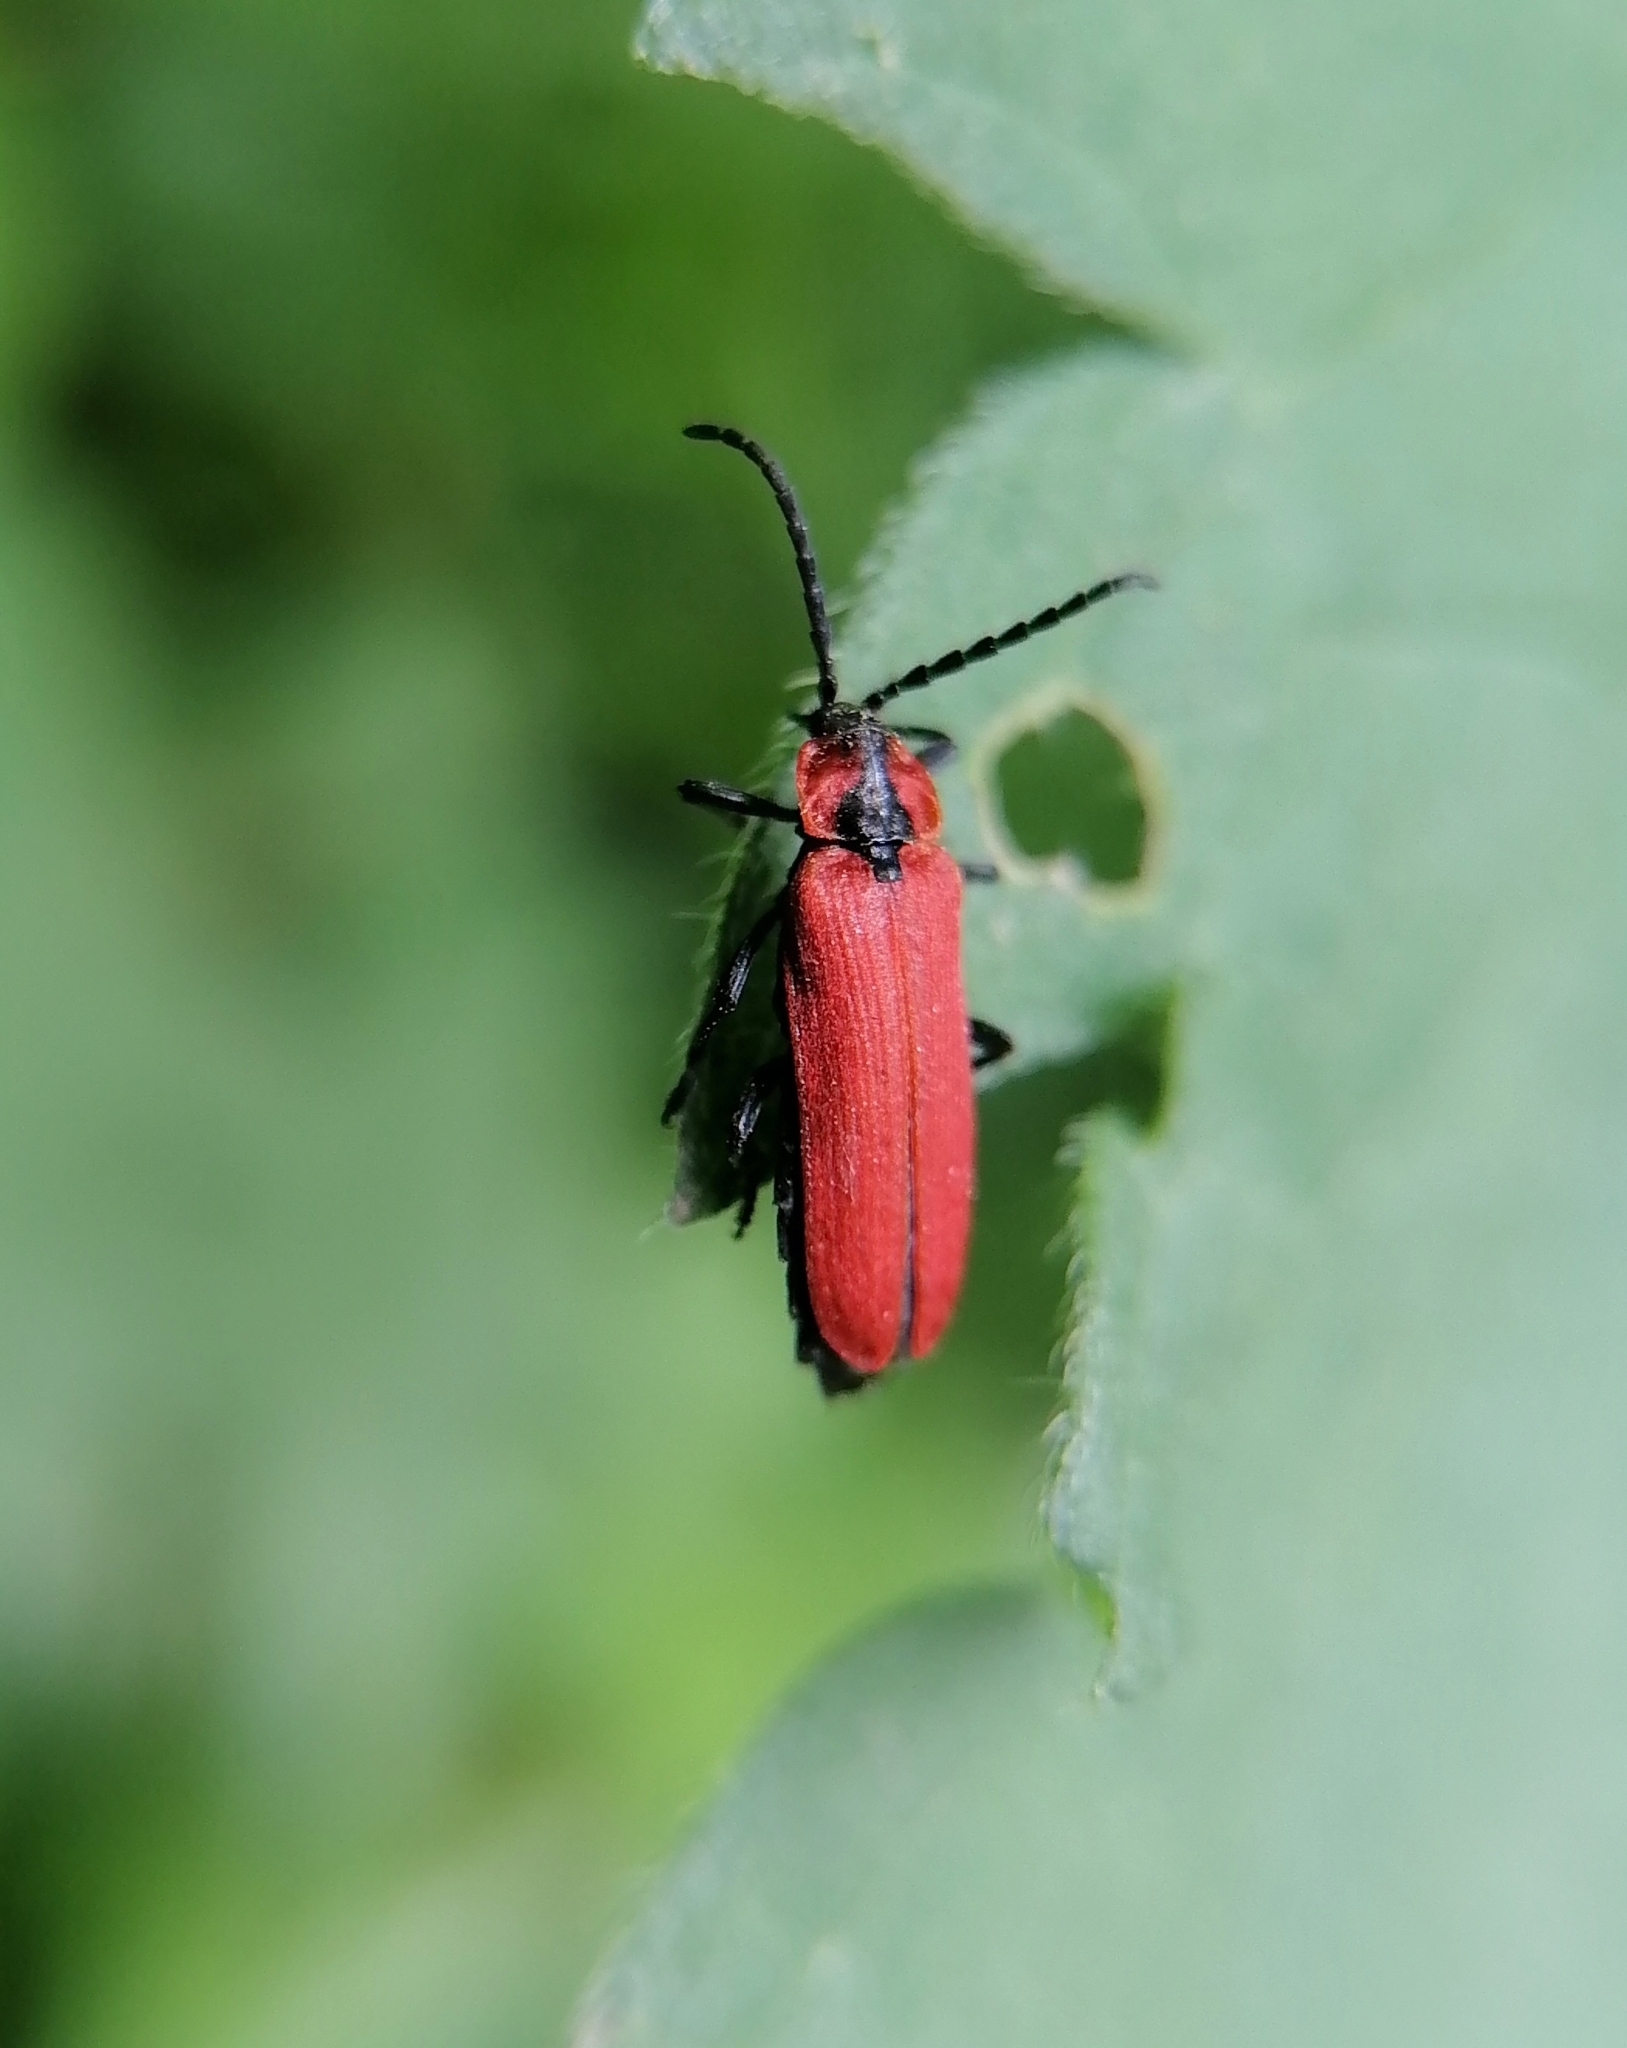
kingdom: Animalia
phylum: Arthropoda
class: Insecta
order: Coleoptera
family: Lycidae
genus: Lygistopterus
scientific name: Lygistopterus sanguineus
